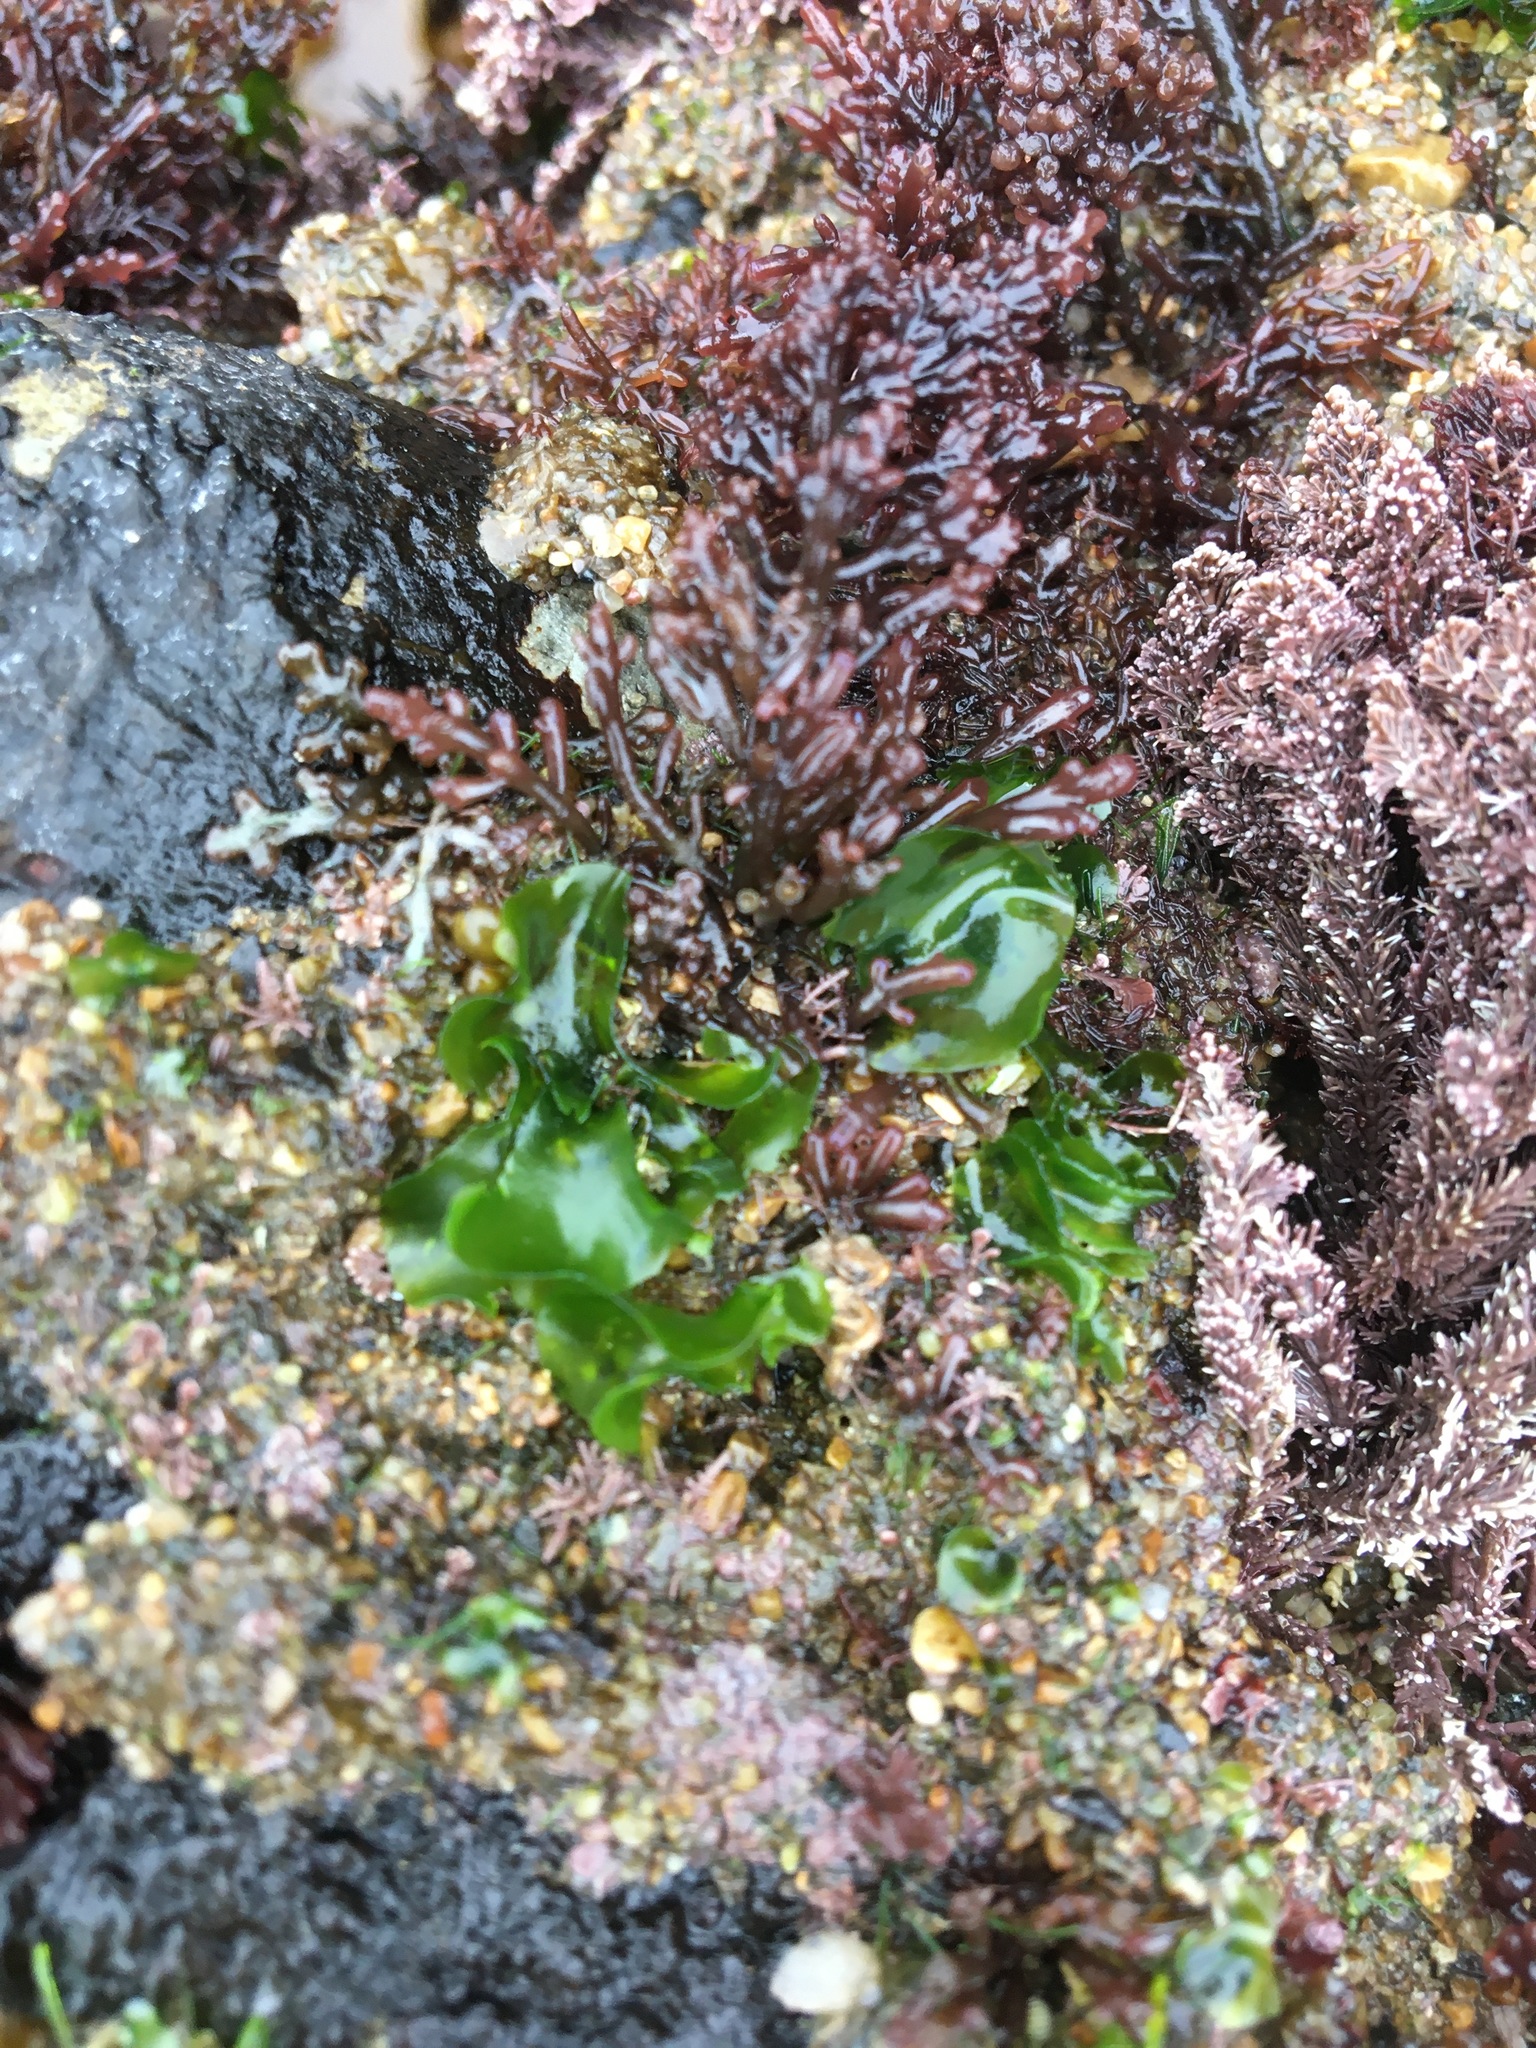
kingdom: Plantae
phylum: Chlorophyta
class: Ulvophyceae
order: Ulvales
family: Ulvaceae
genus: Ulva
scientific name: Ulva lactuca
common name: Sea lettuce
